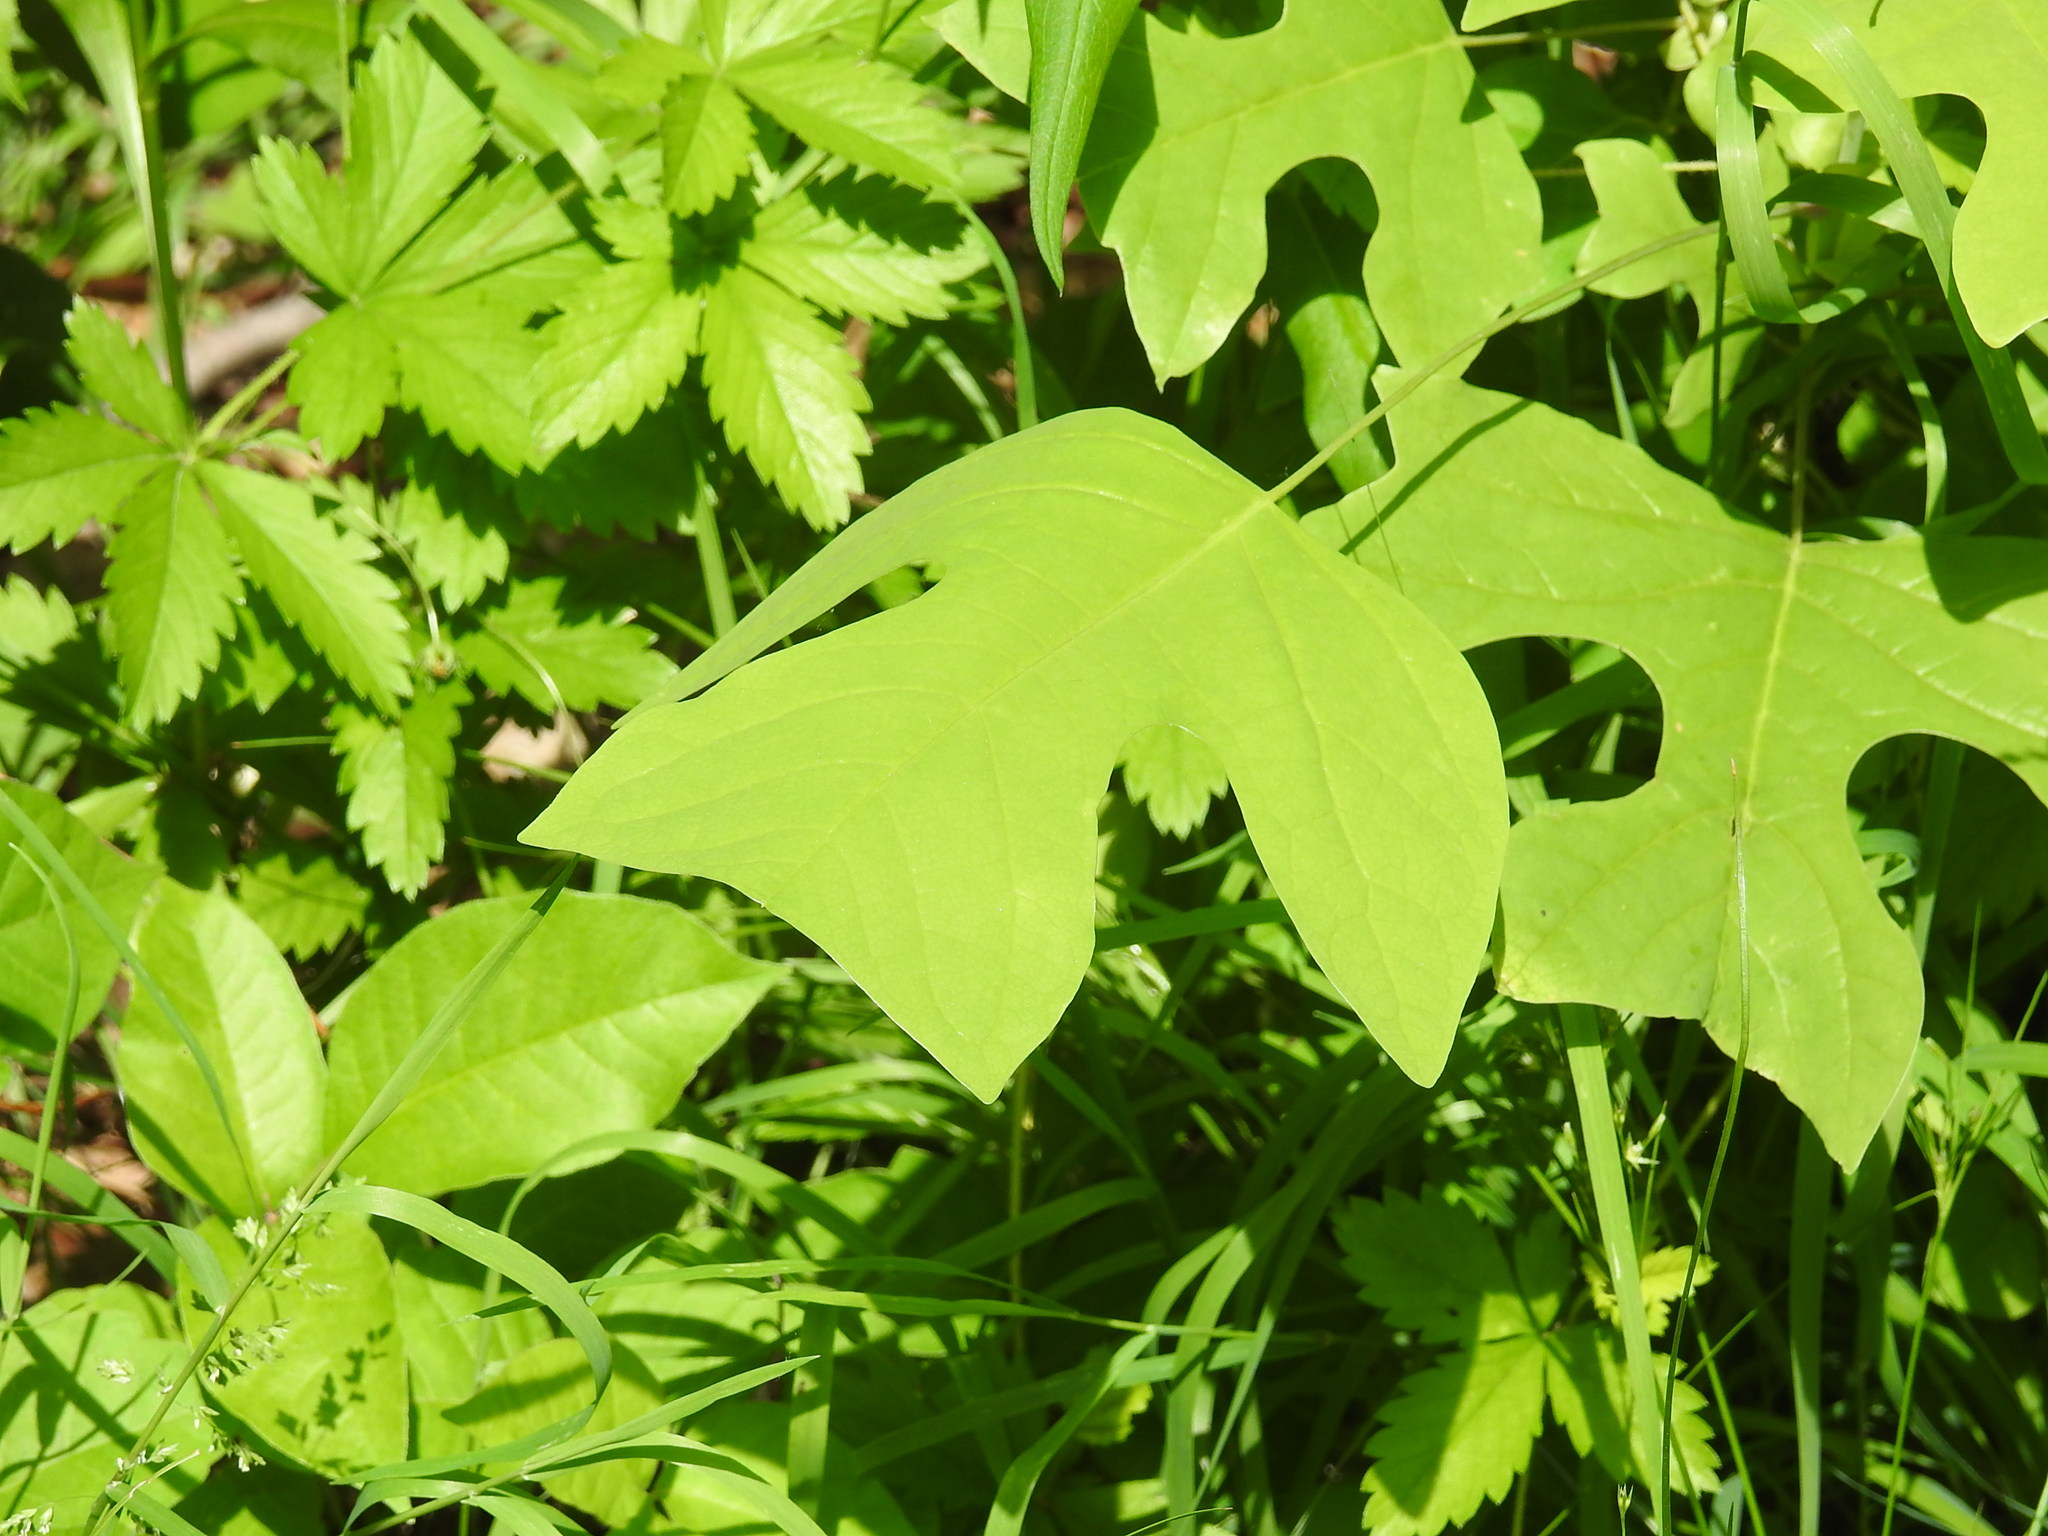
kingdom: Plantae
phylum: Tracheophyta
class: Magnoliopsida
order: Magnoliales
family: Magnoliaceae
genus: Liriodendron
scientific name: Liriodendron tulipifera
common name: Tulip tree
